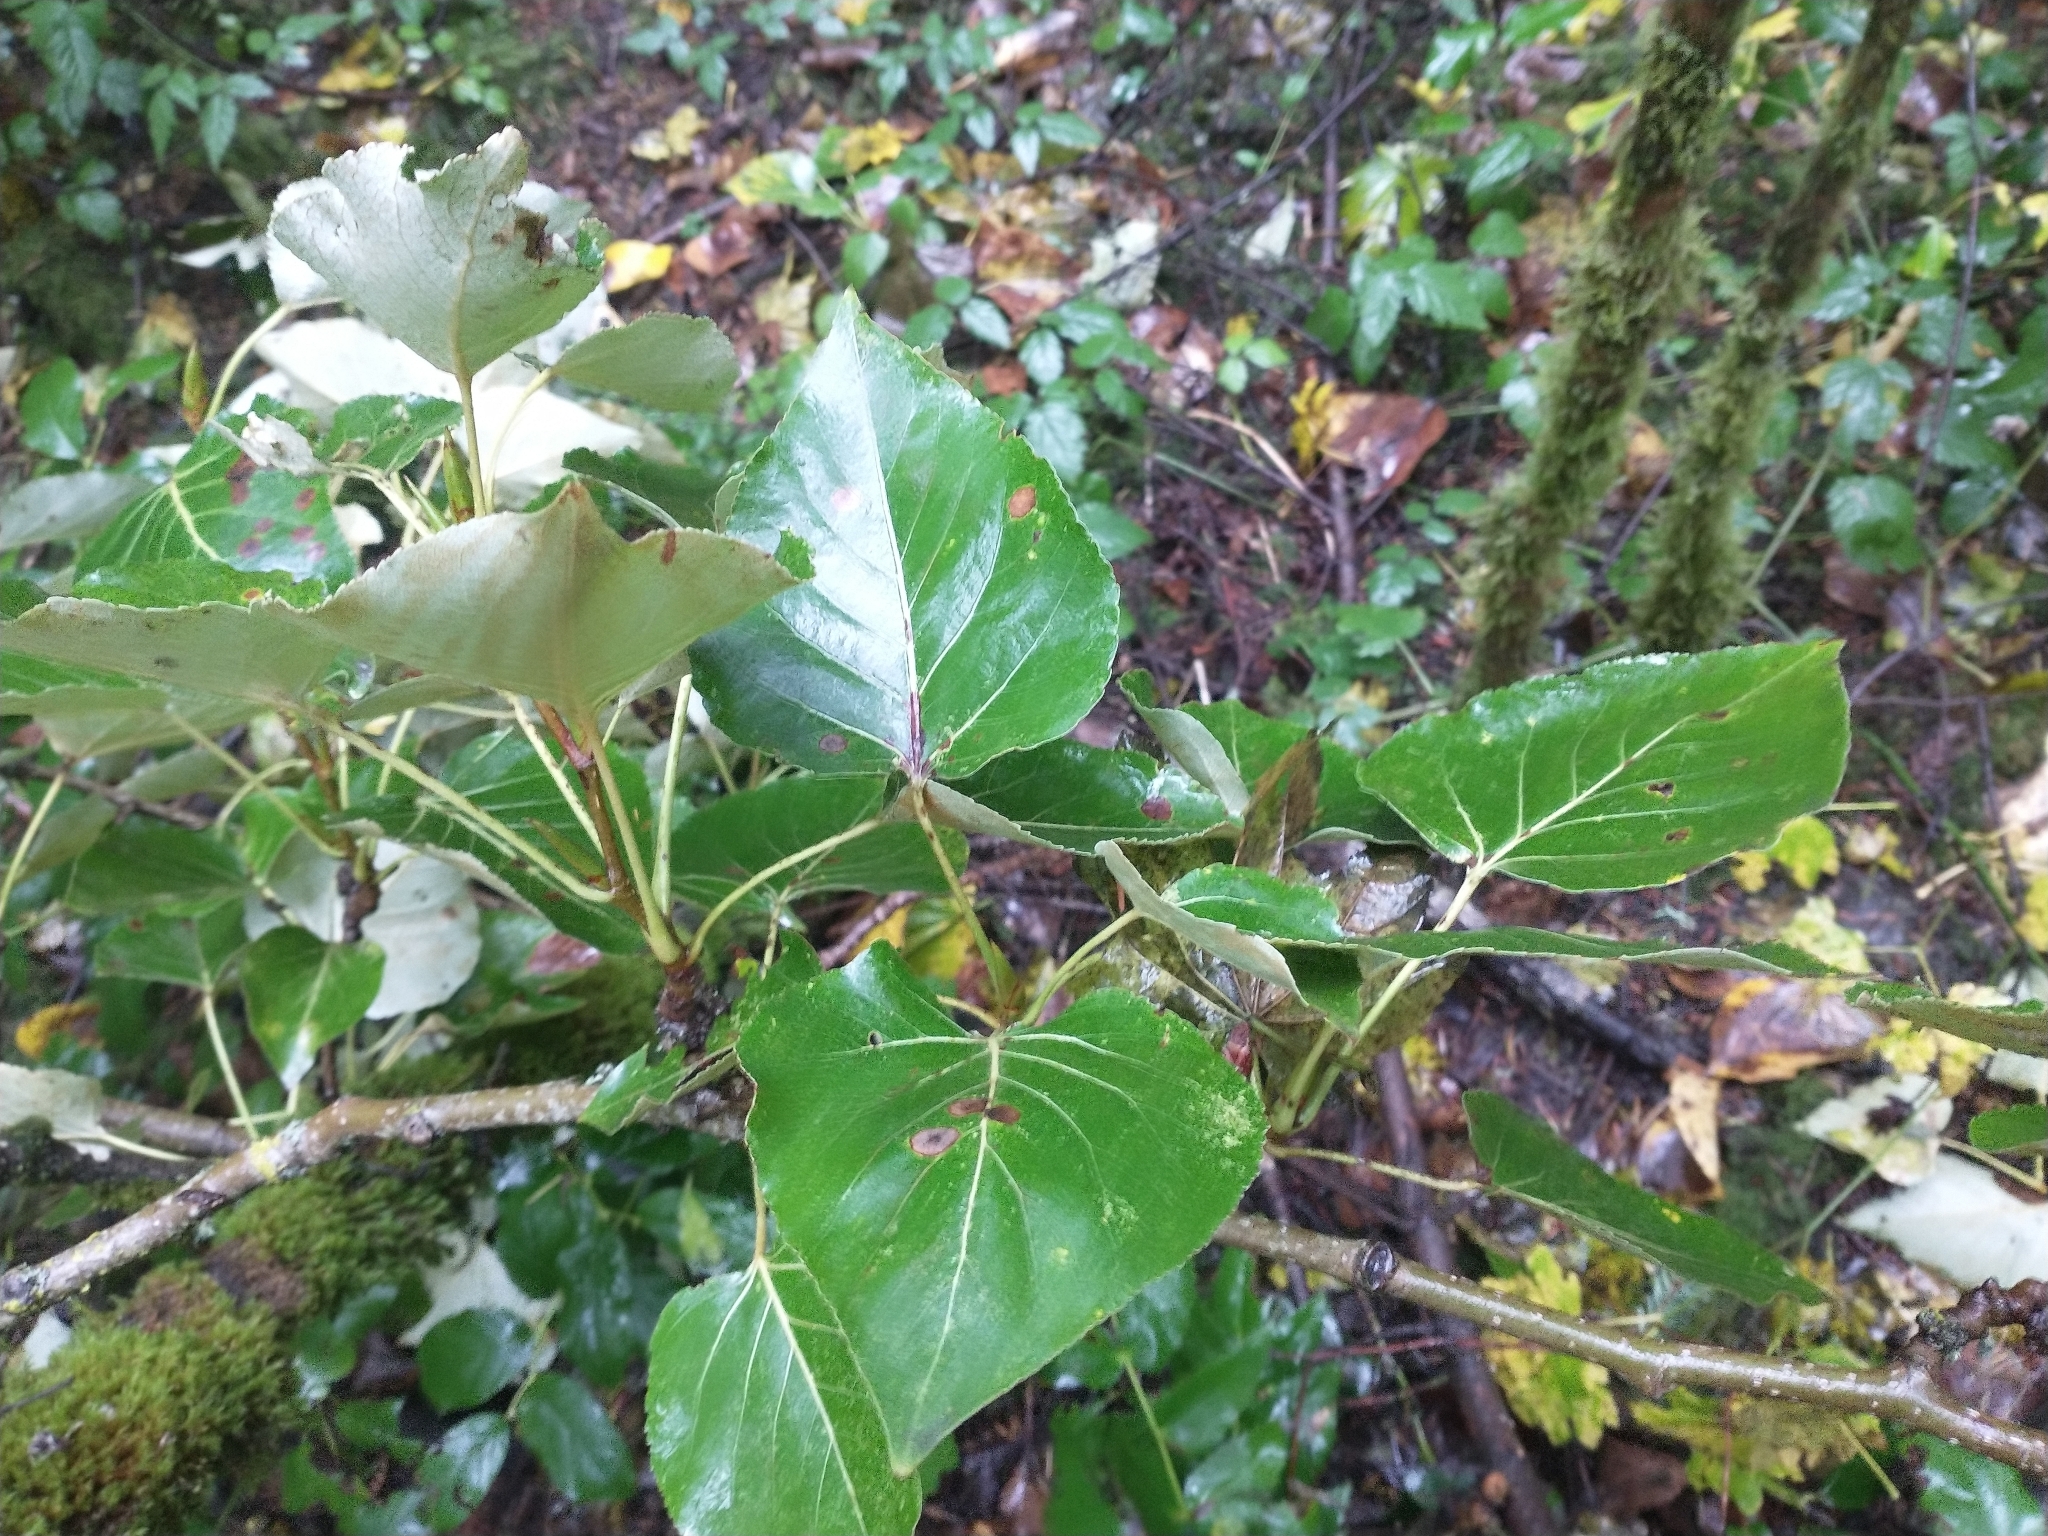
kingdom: Plantae
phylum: Tracheophyta
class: Magnoliopsida
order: Malpighiales
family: Salicaceae
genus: Populus
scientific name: Populus trichocarpa
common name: Black cottonwood
